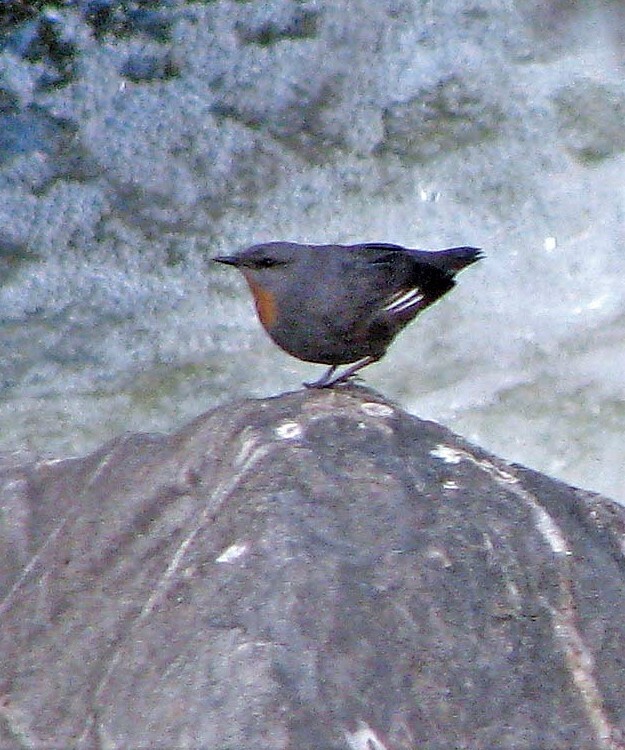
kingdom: Animalia
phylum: Chordata
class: Aves
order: Passeriformes
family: Cinclidae
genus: Cinclus
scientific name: Cinclus schulzii
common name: Rufous-throated dipper
